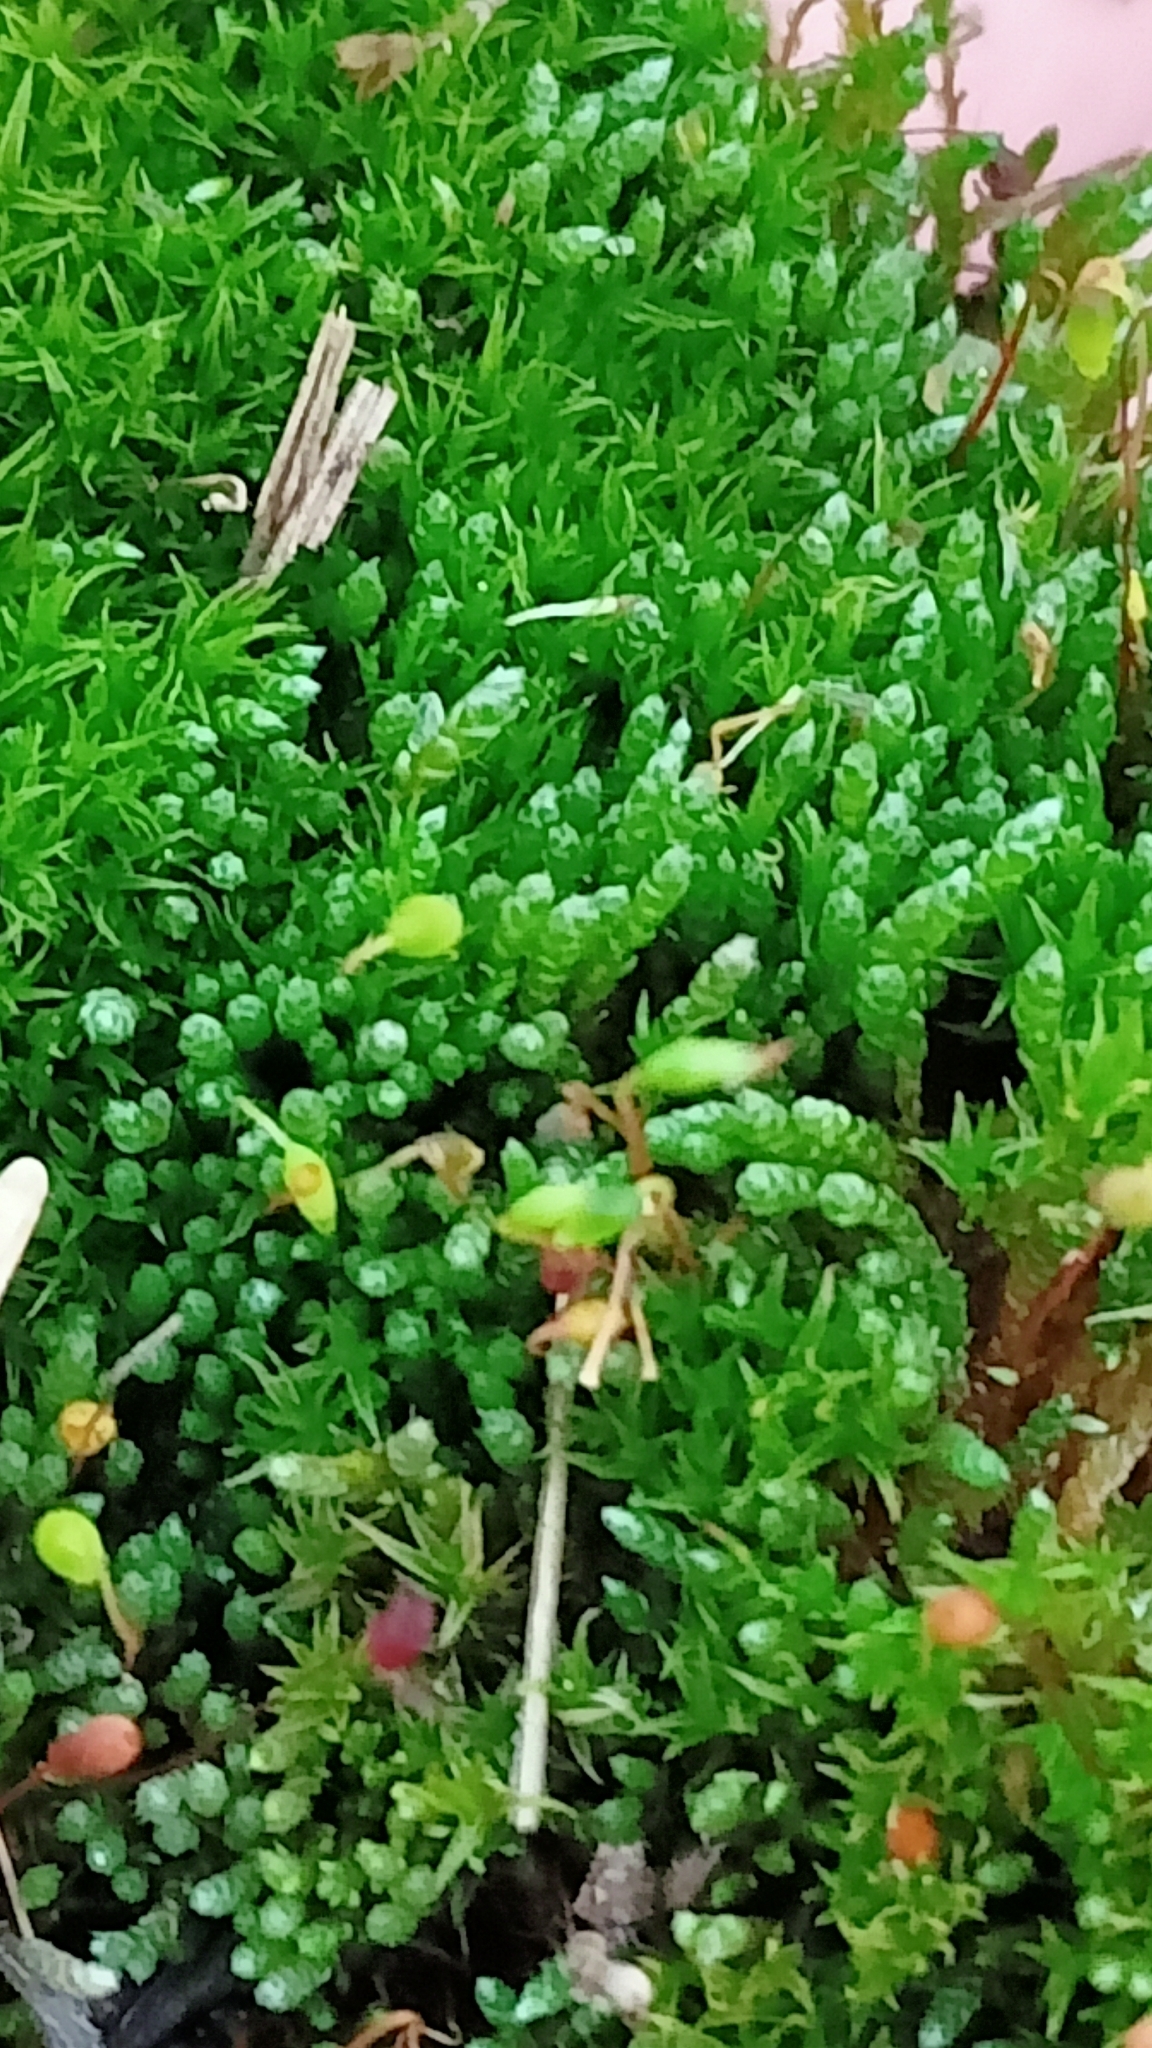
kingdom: Plantae
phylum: Bryophyta
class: Bryopsida
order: Bryales
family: Bryaceae
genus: Bryum
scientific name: Bryum argenteum
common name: Silver-moss
